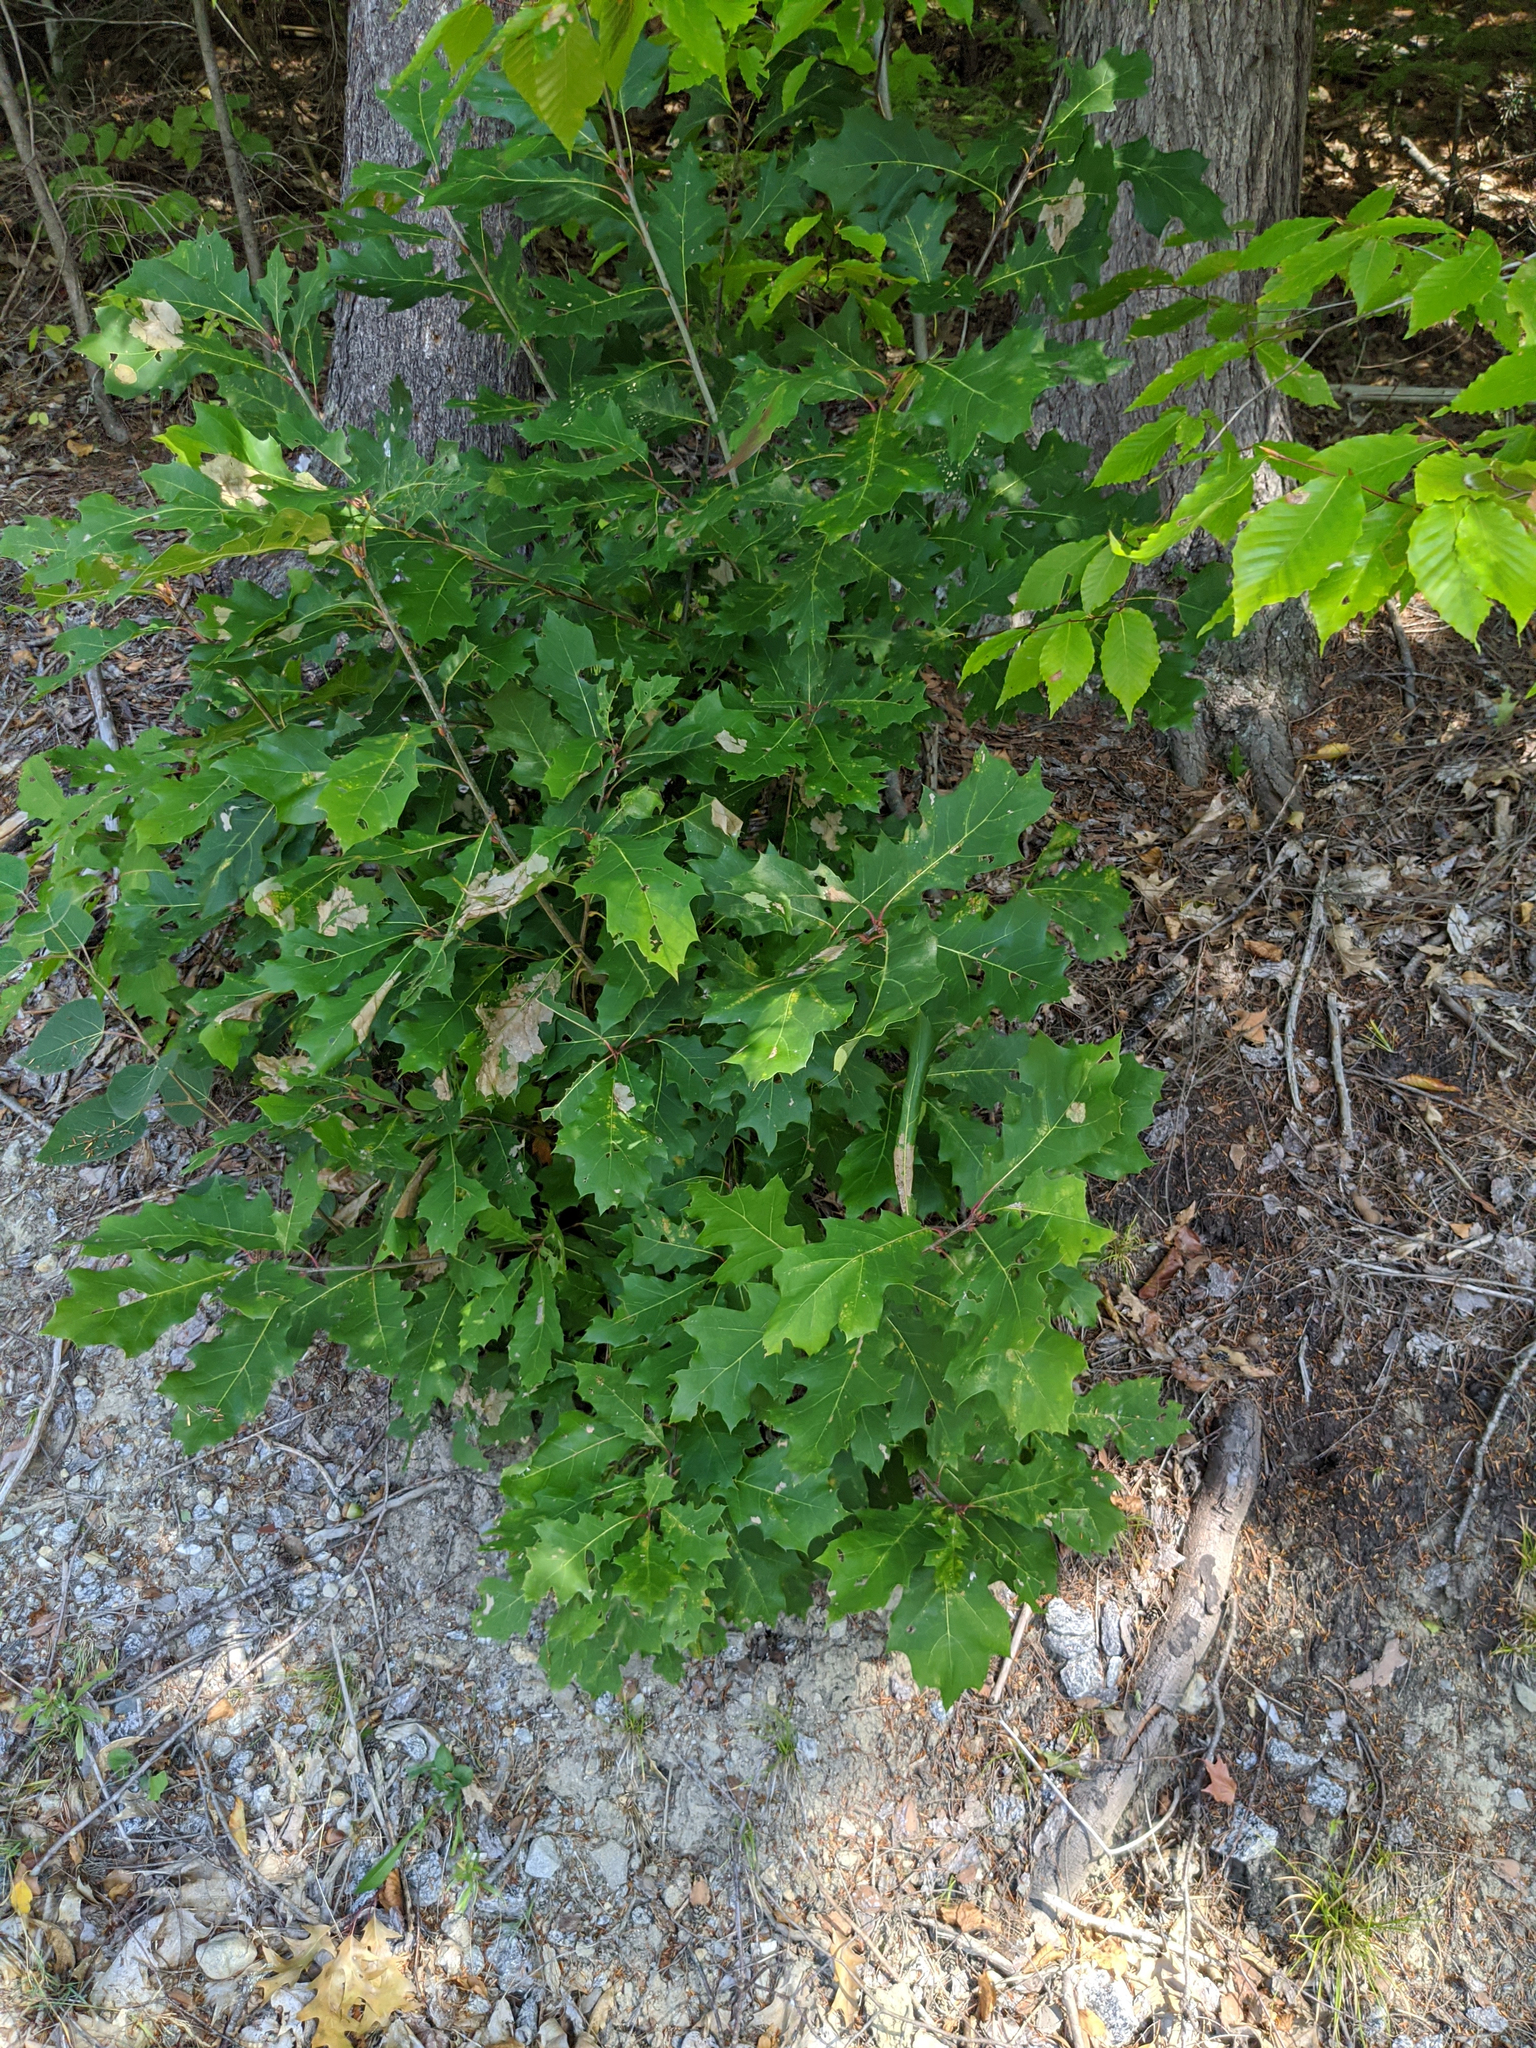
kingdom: Plantae
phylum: Tracheophyta
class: Magnoliopsida
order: Fagales
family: Fagaceae
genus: Quercus
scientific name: Quercus rubra
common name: Red oak
